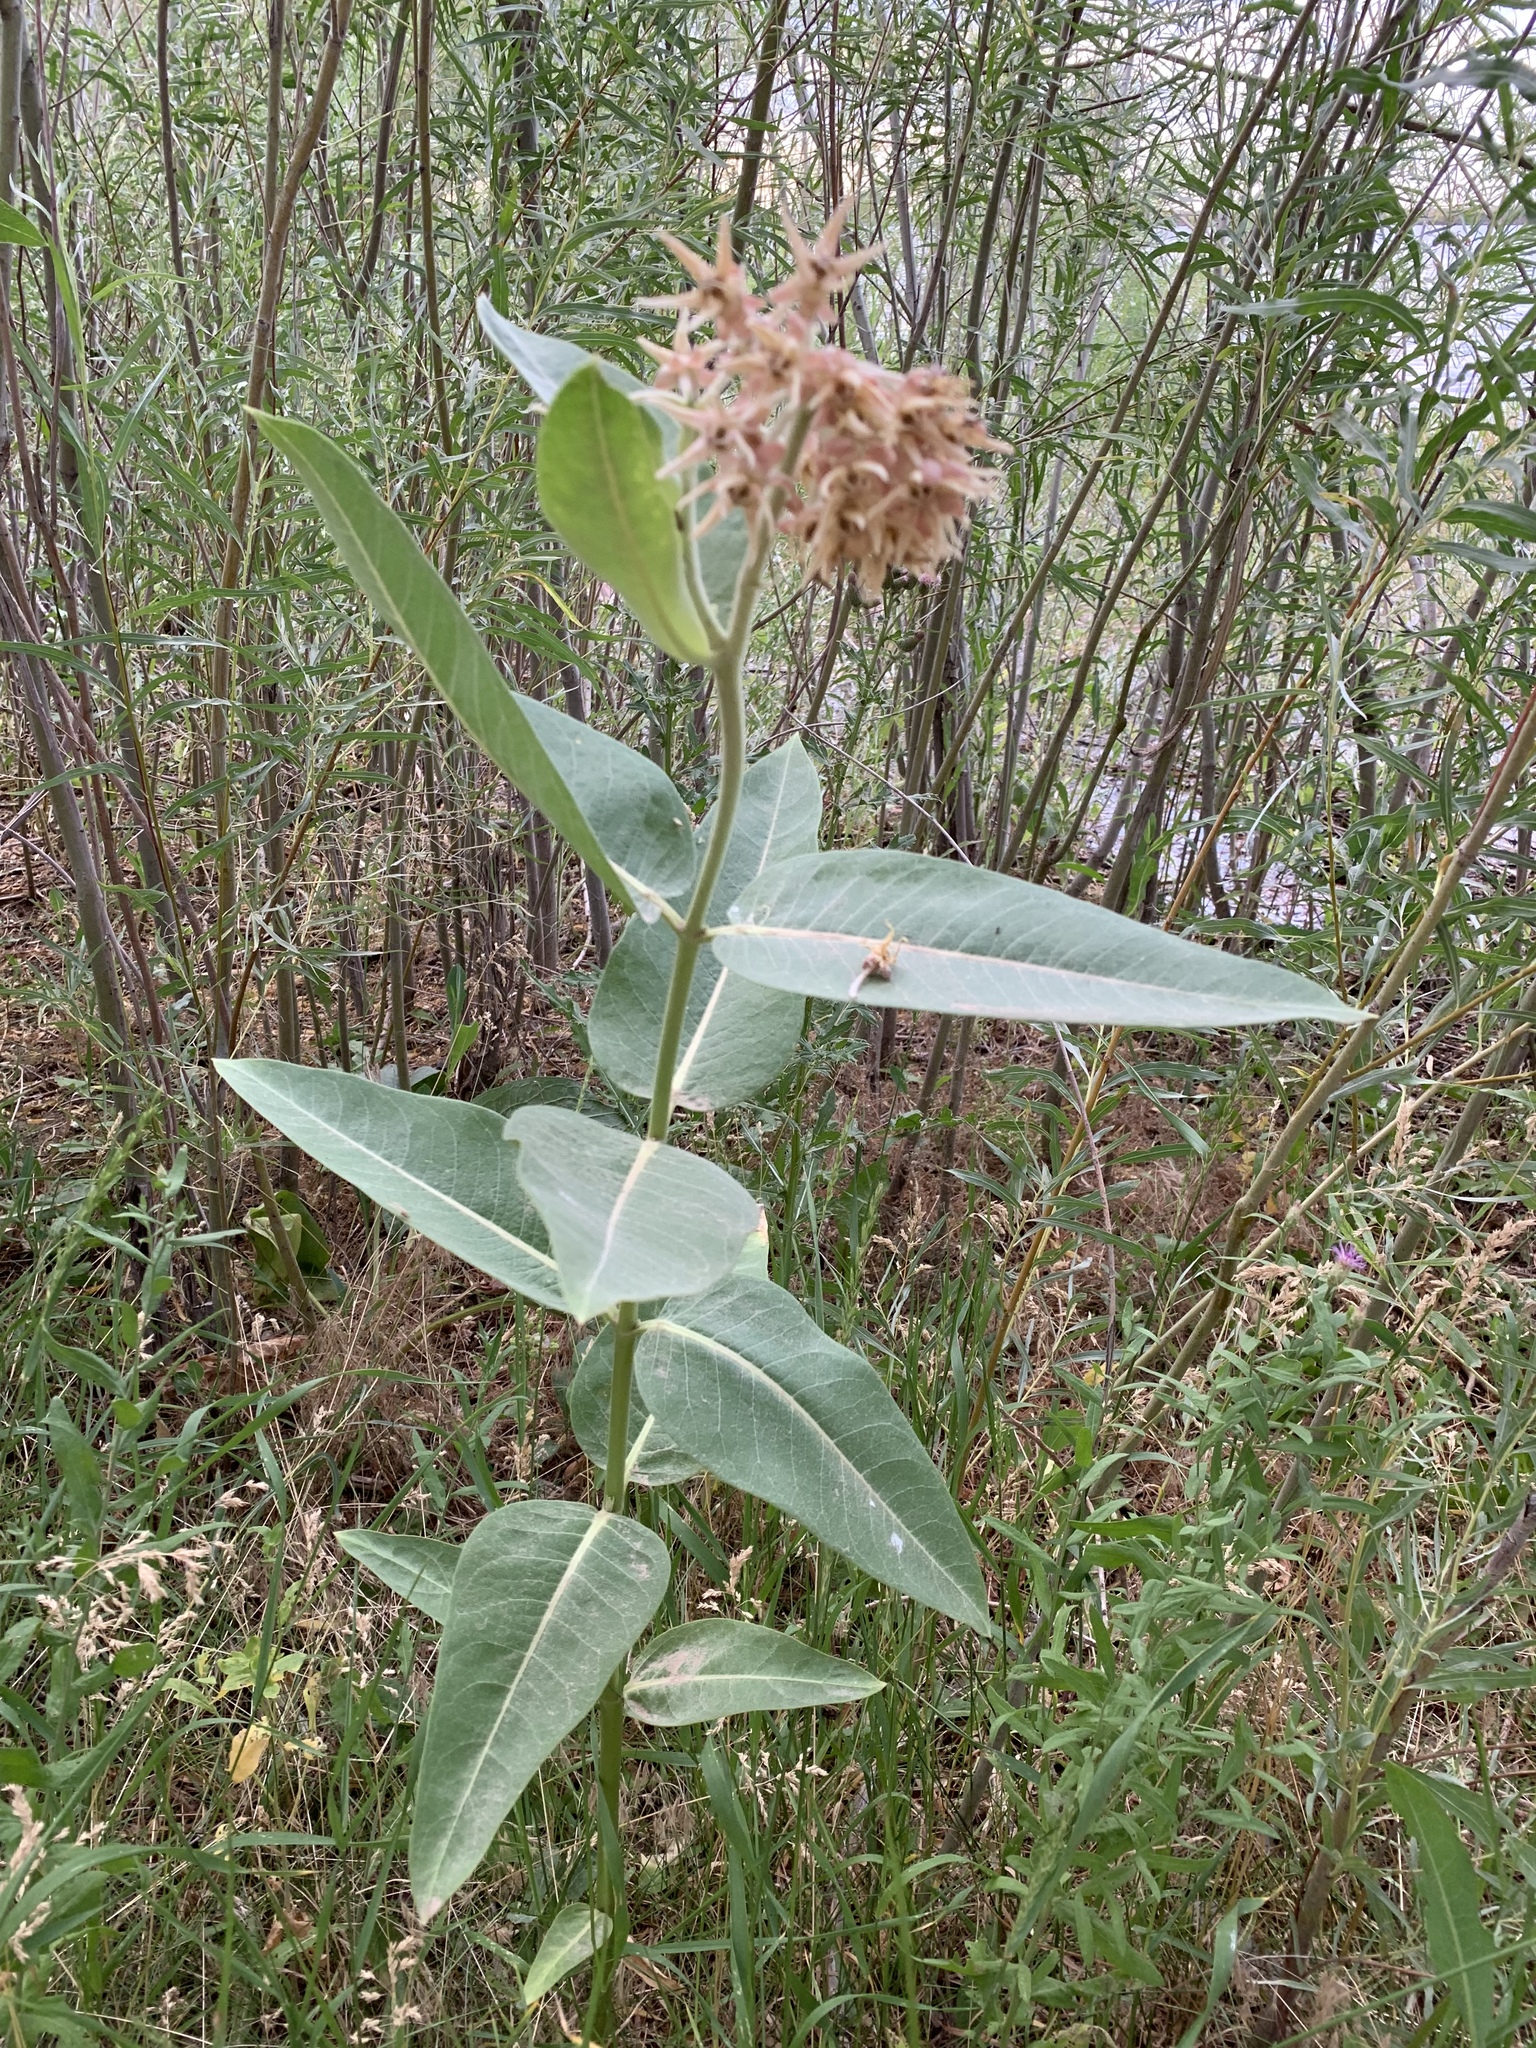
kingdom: Plantae
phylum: Tracheophyta
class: Magnoliopsida
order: Gentianales
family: Apocynaceae
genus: Asclepias
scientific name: Asclepias speciosa
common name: Showy milkweed
